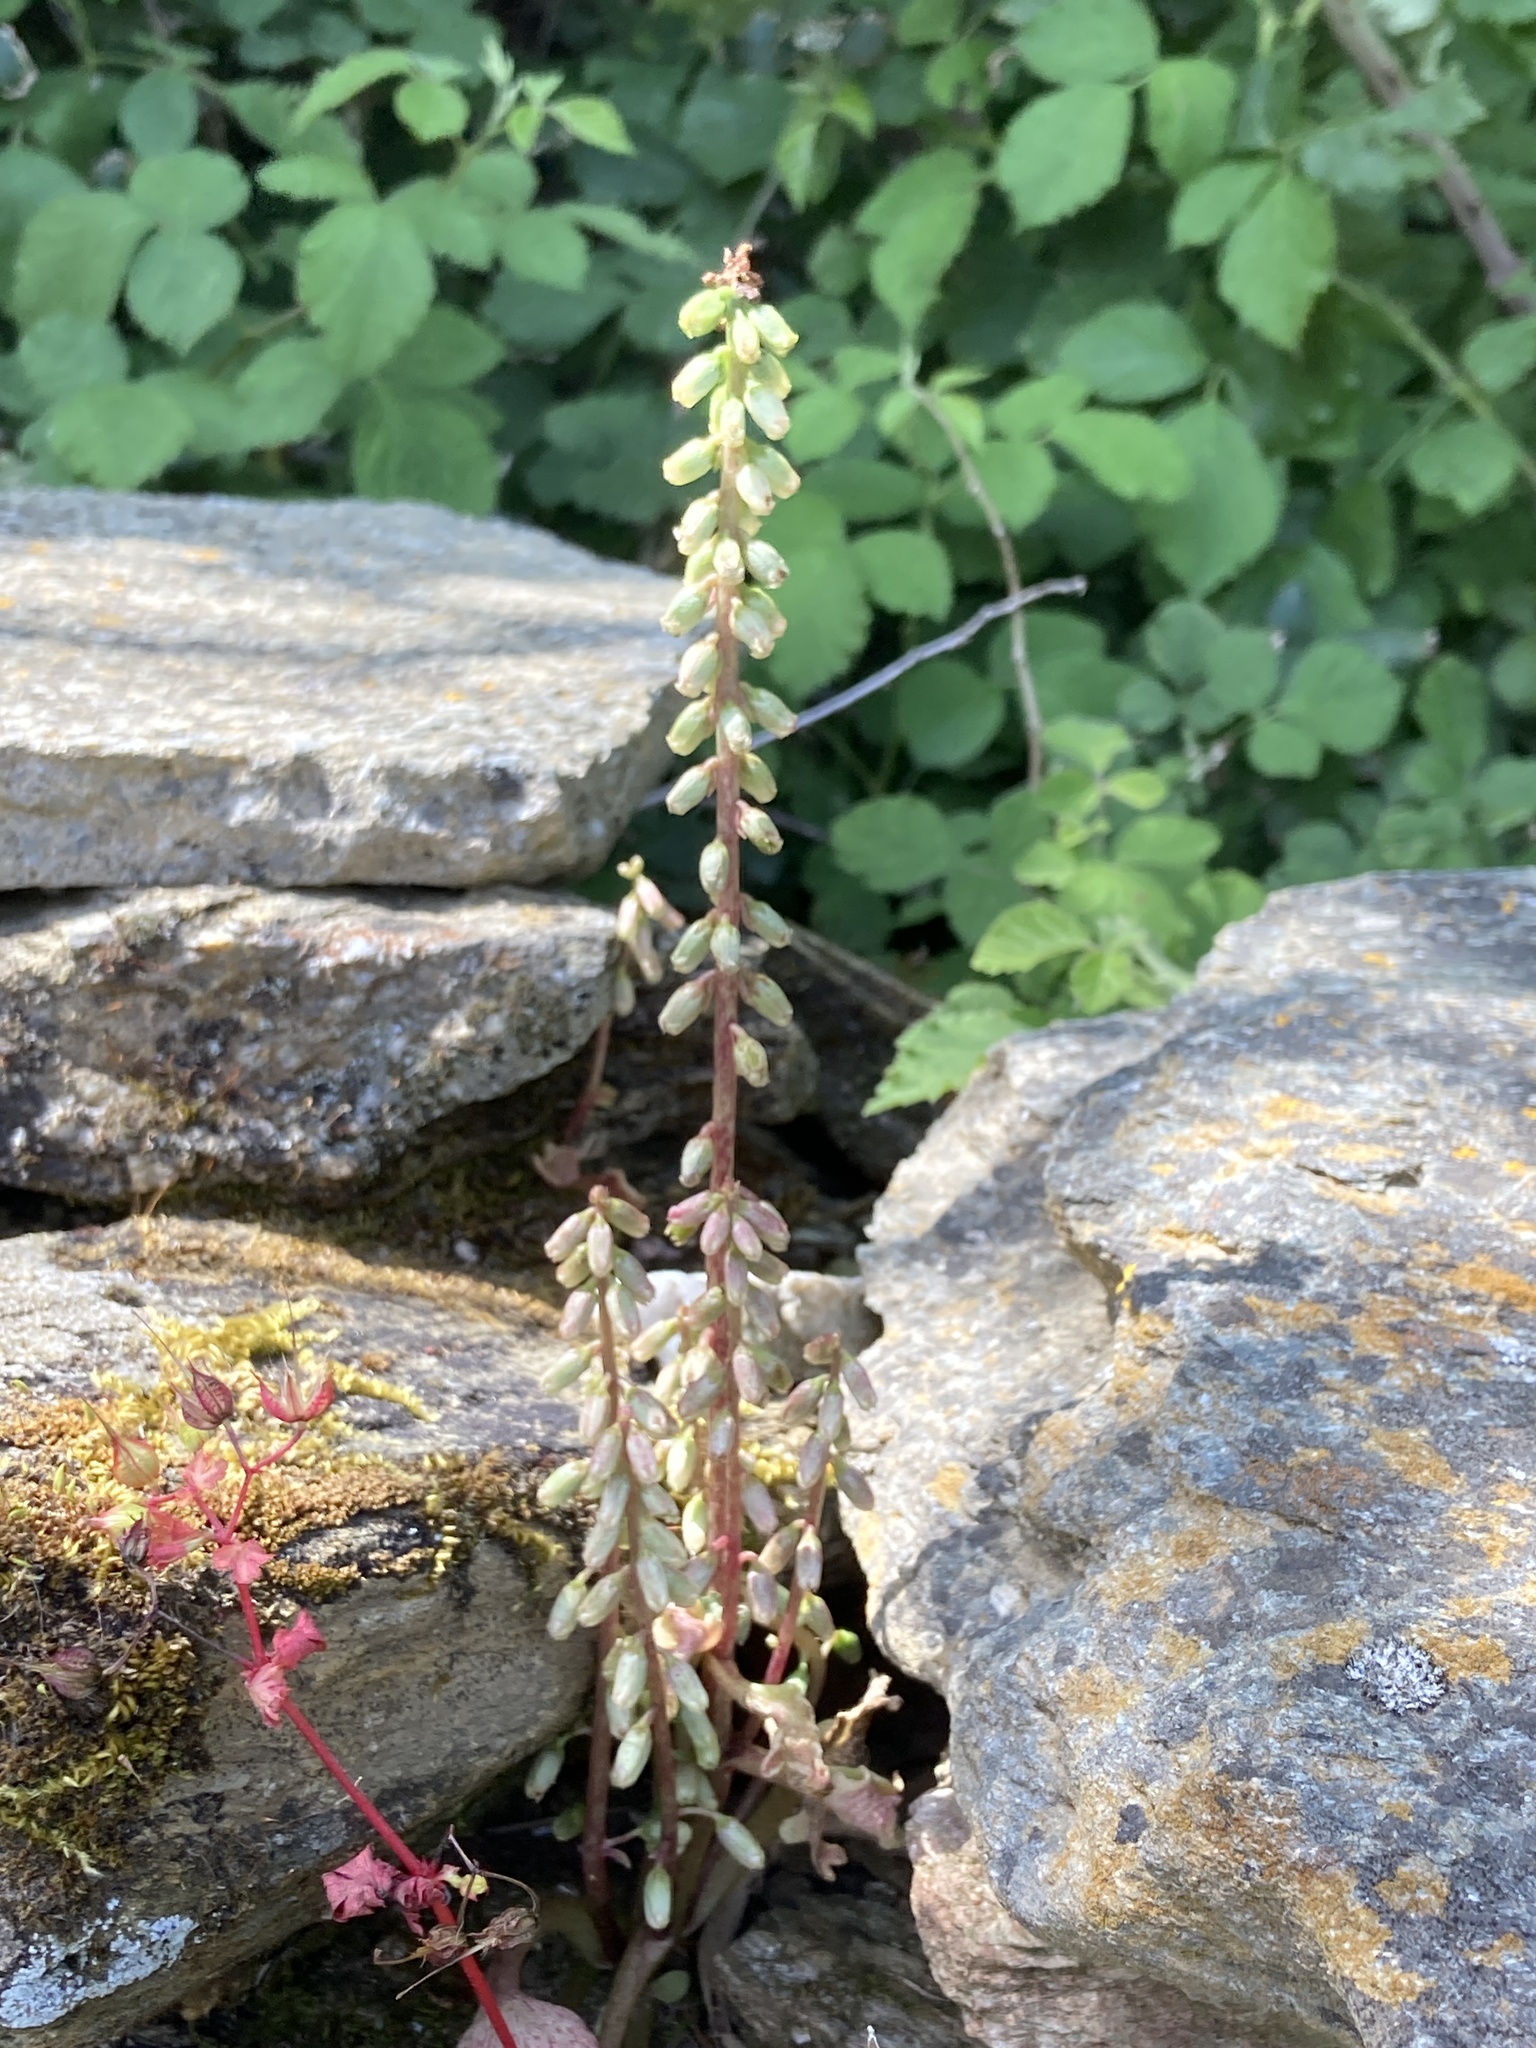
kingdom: Plantae
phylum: Tracheophyta
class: Magnoliopsida
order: Saxifragales
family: Crassulaceae
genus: Umbilicus
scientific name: Umbilicus rupestris
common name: Navelwort
